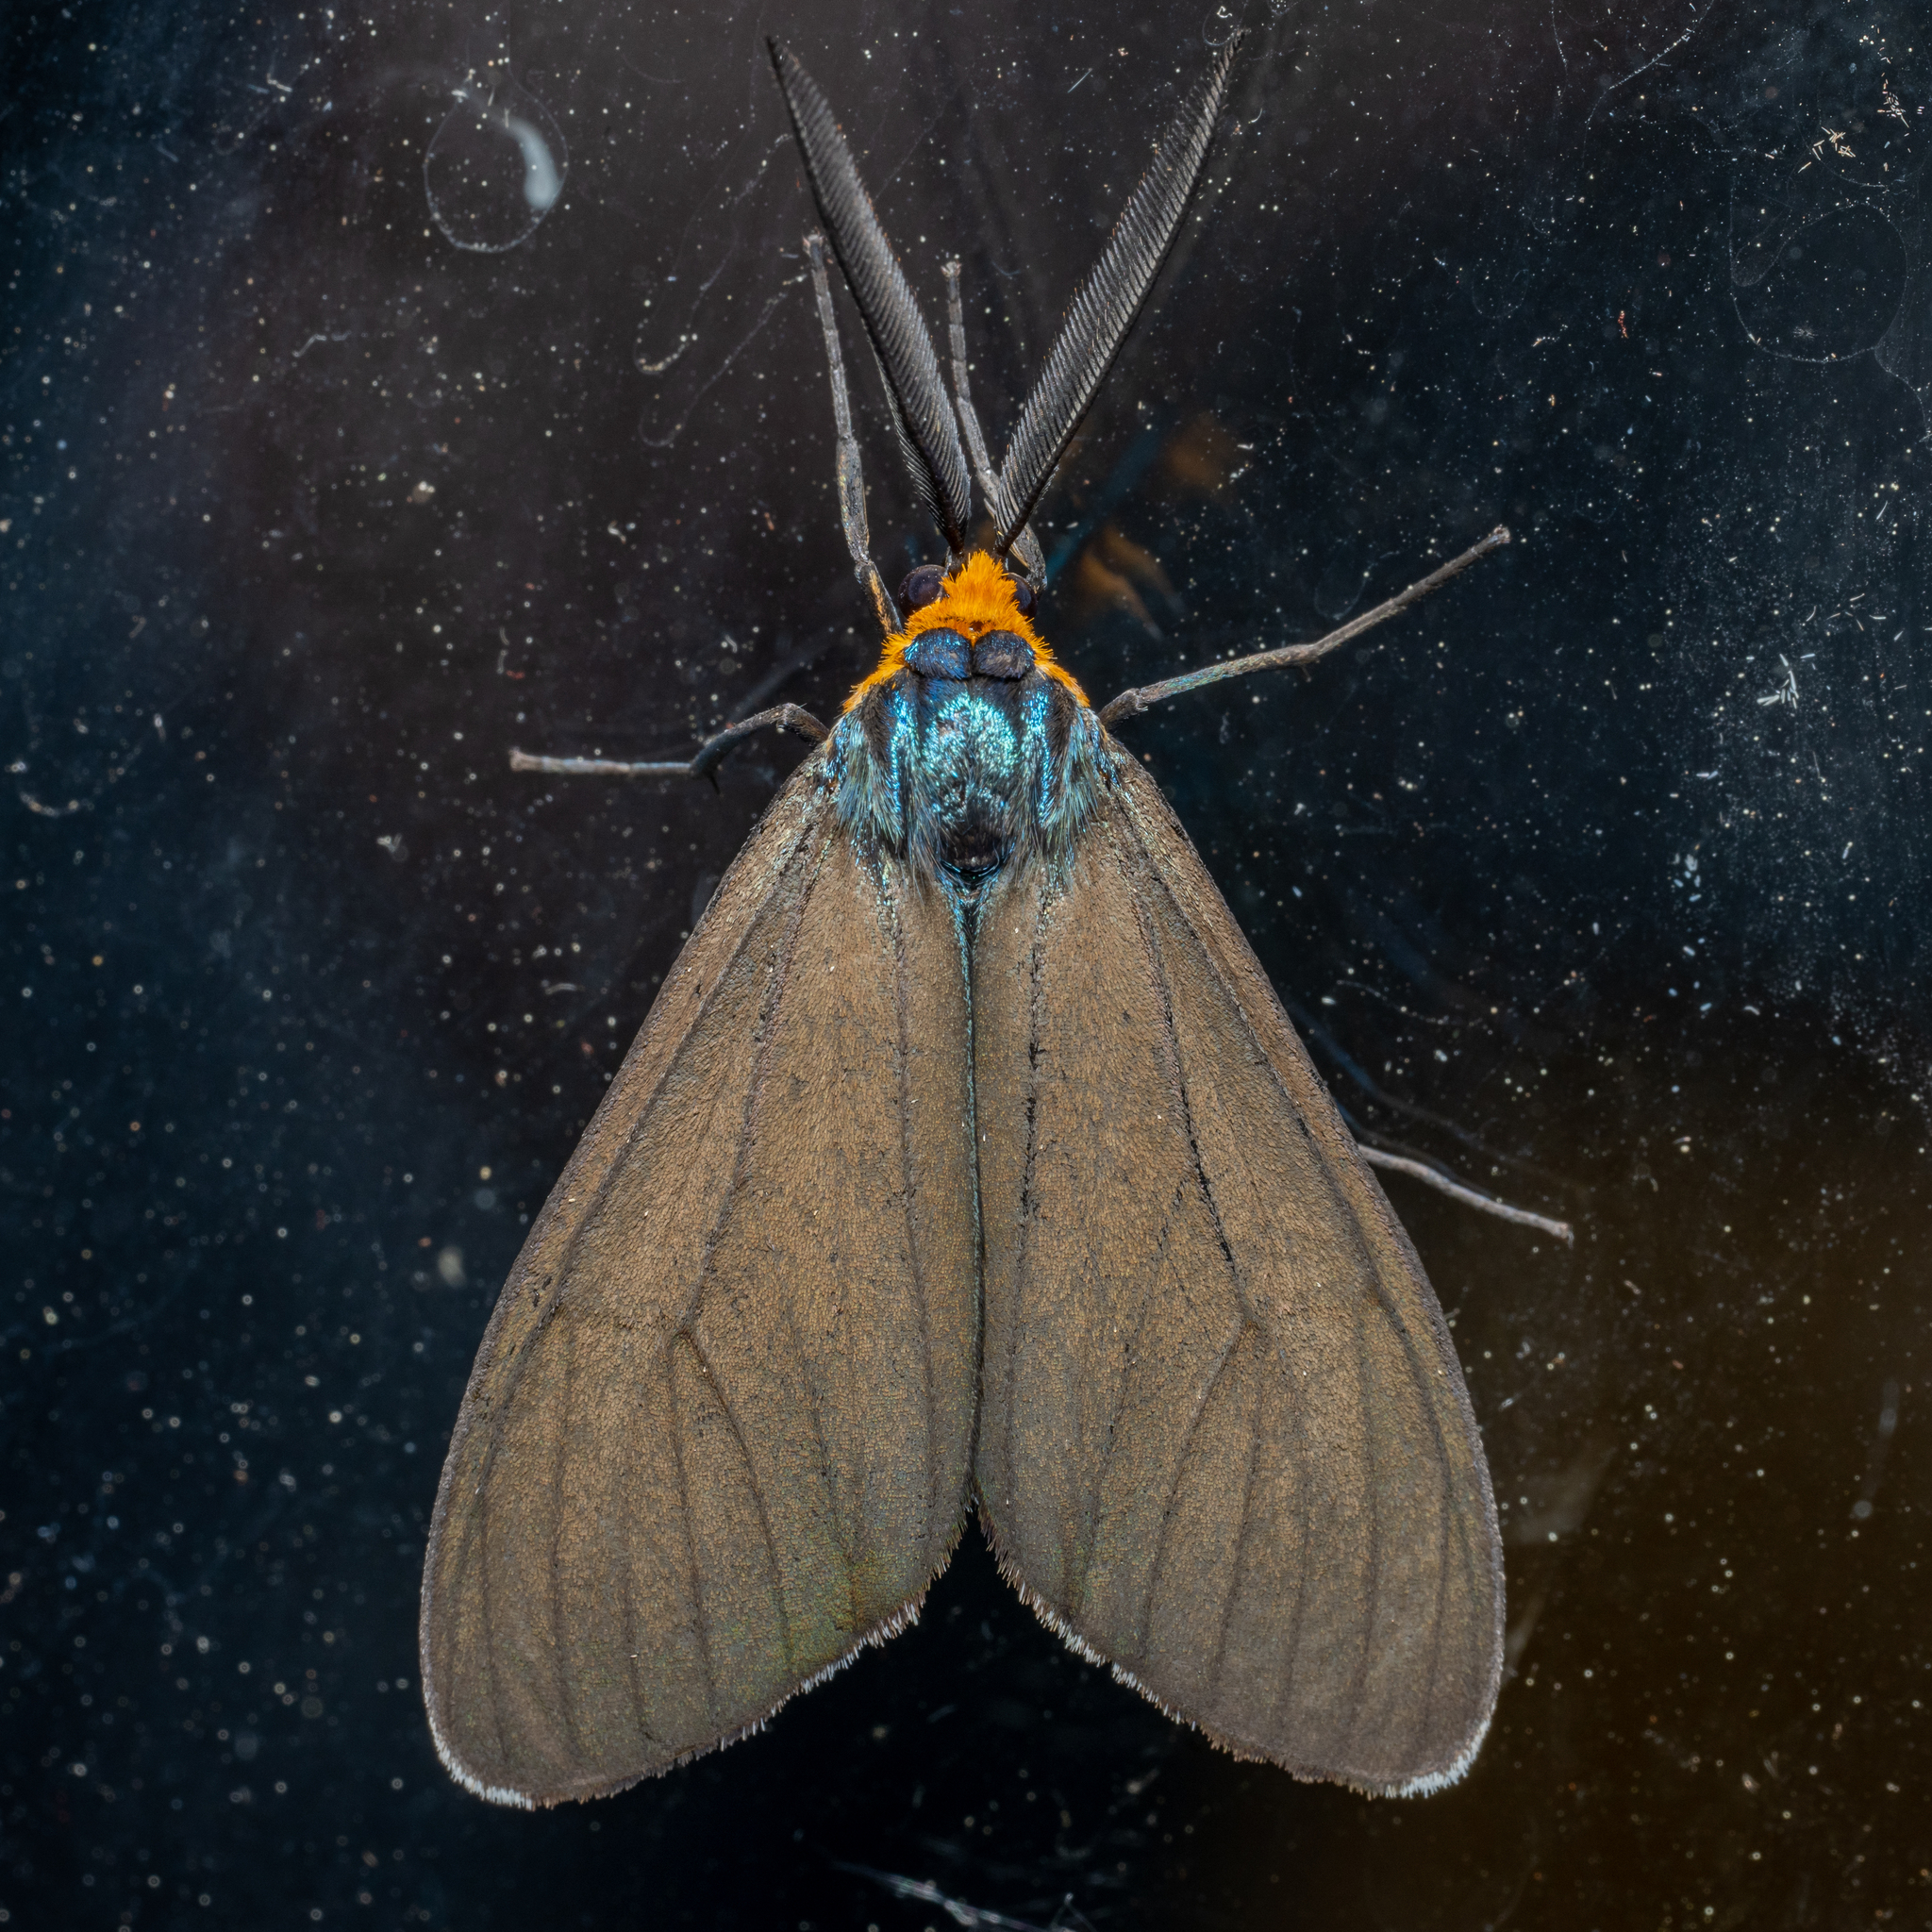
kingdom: Animalia
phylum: Arthropoda
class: Insecta
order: Lepidoptera
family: Erebidae
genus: Ctenucha
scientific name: Ctenucha virginica
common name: Virginia ctenucha moth
